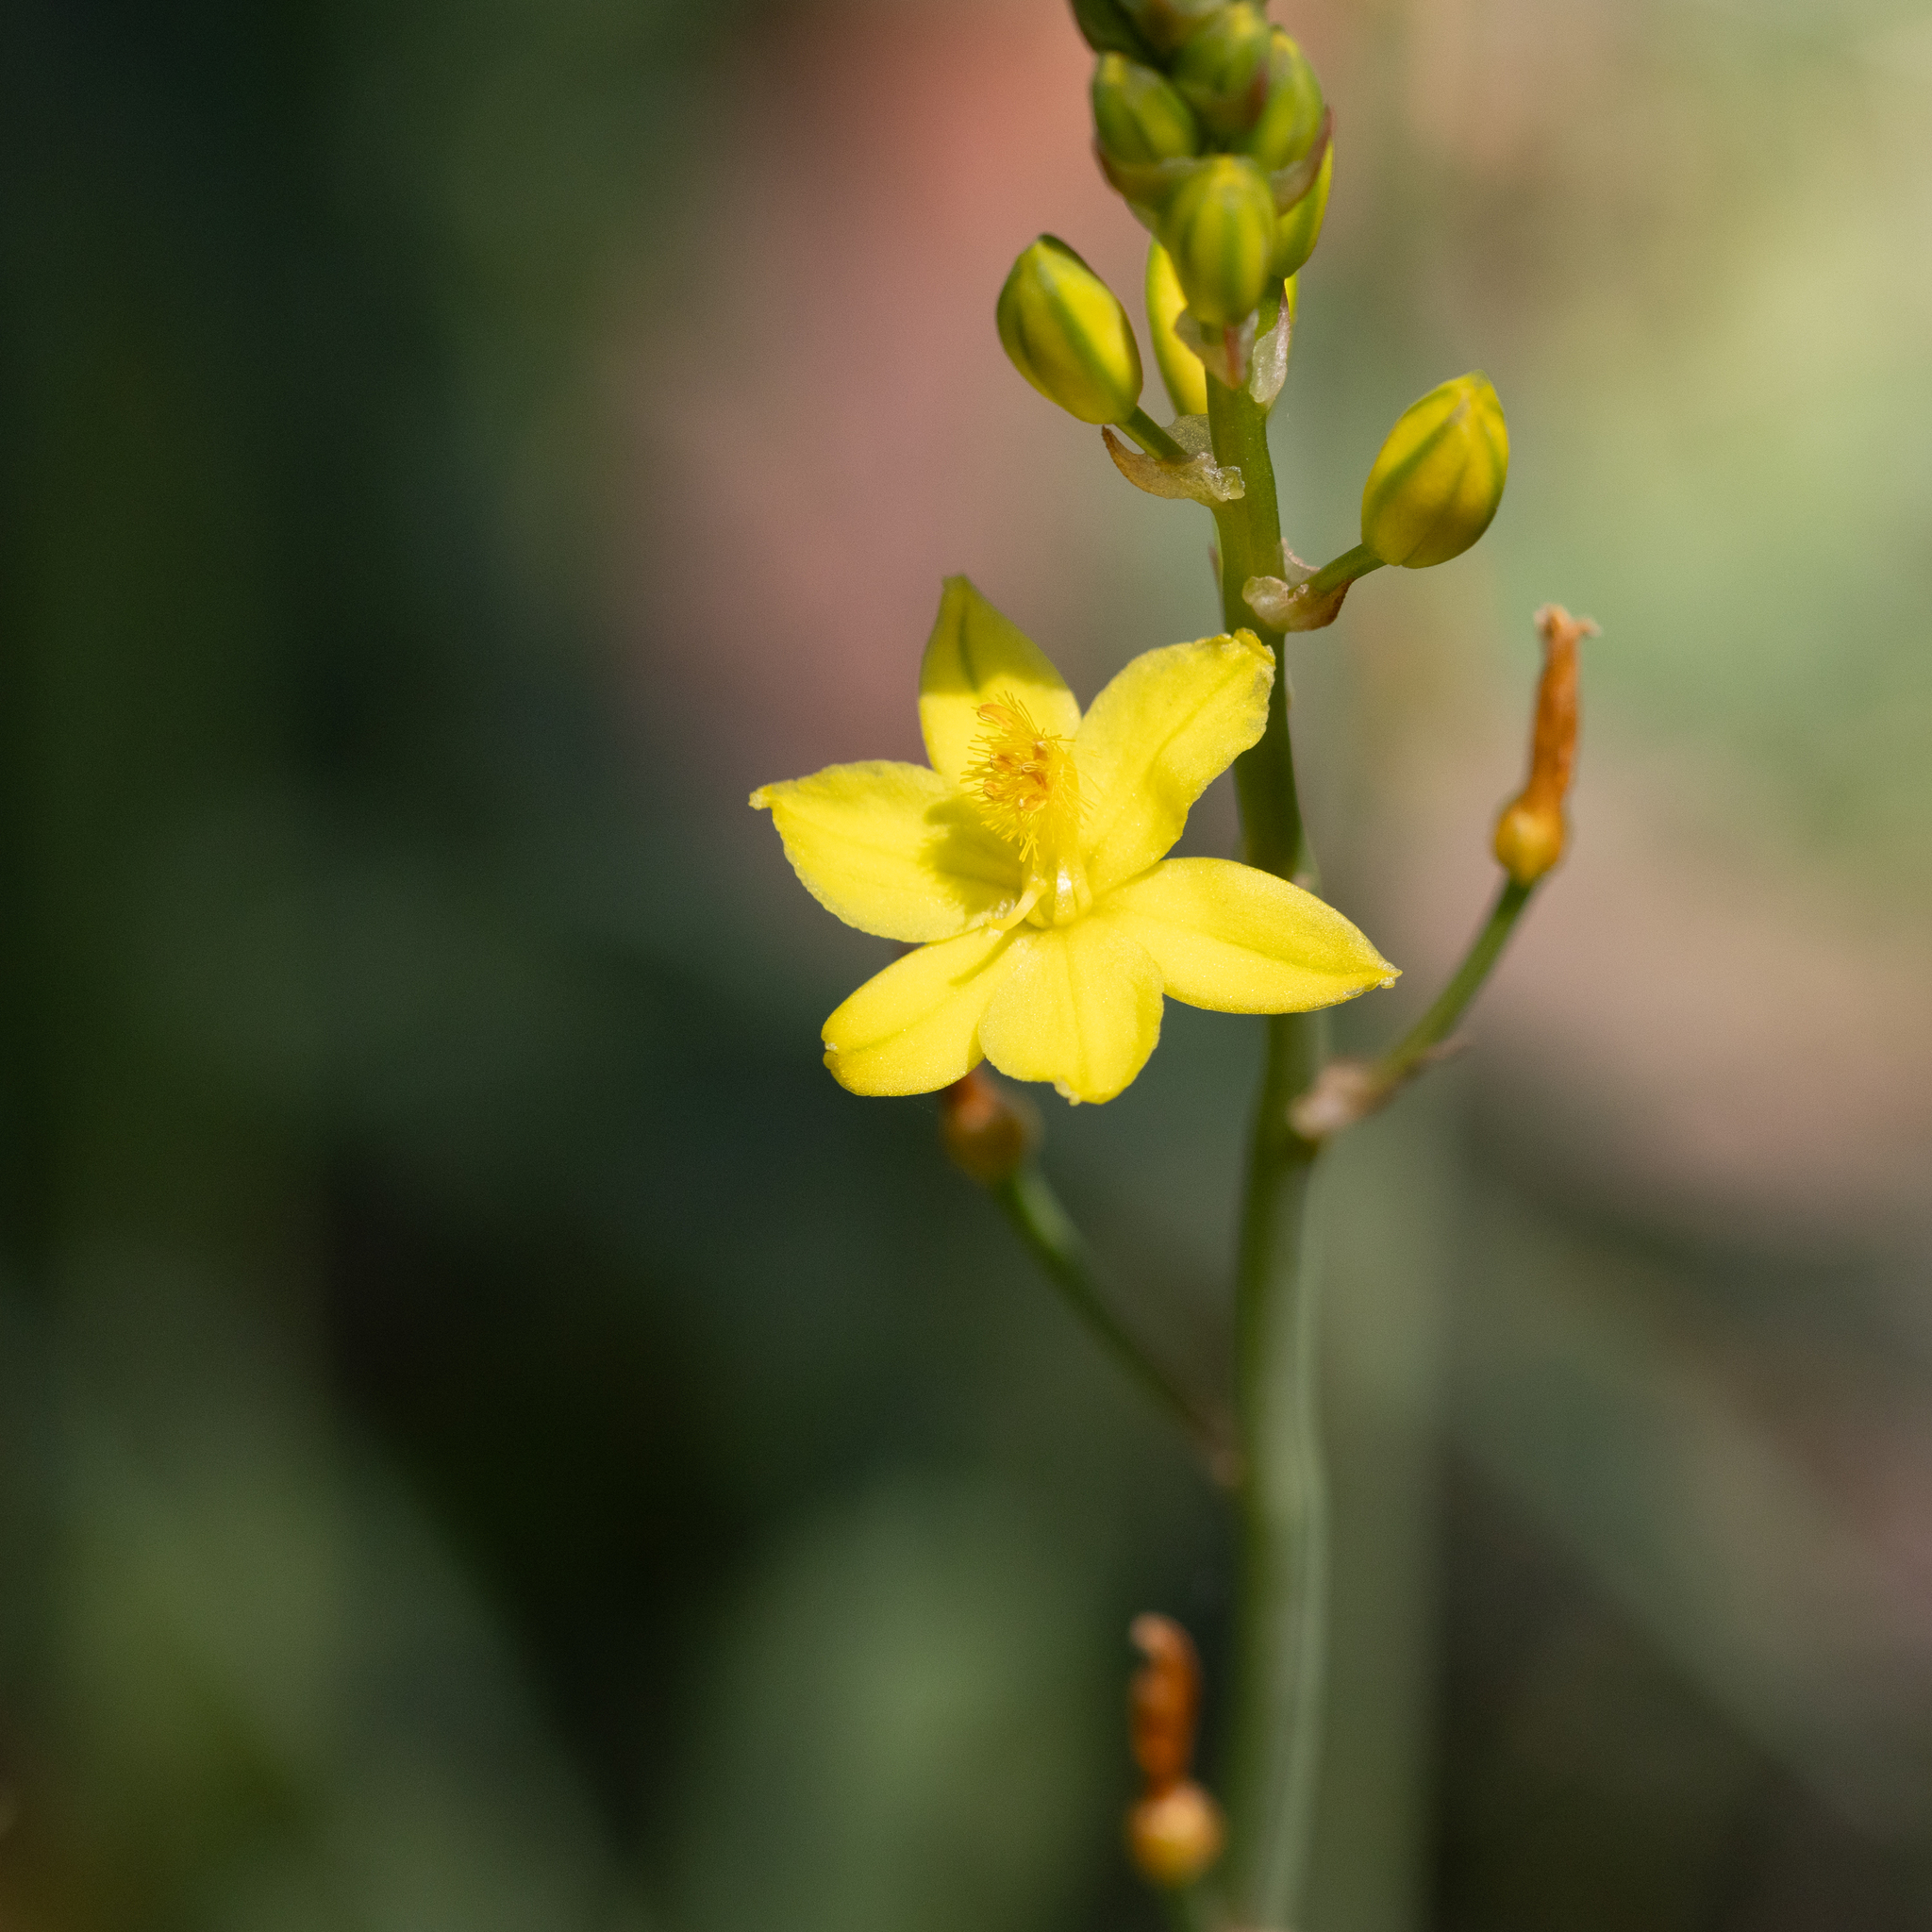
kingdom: Plantae
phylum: Tracheophyta
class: Liliopsida
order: Asparagales
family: Asphodelaceae
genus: Bulbine
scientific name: Bulbine bulbosa
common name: Golden-lily
